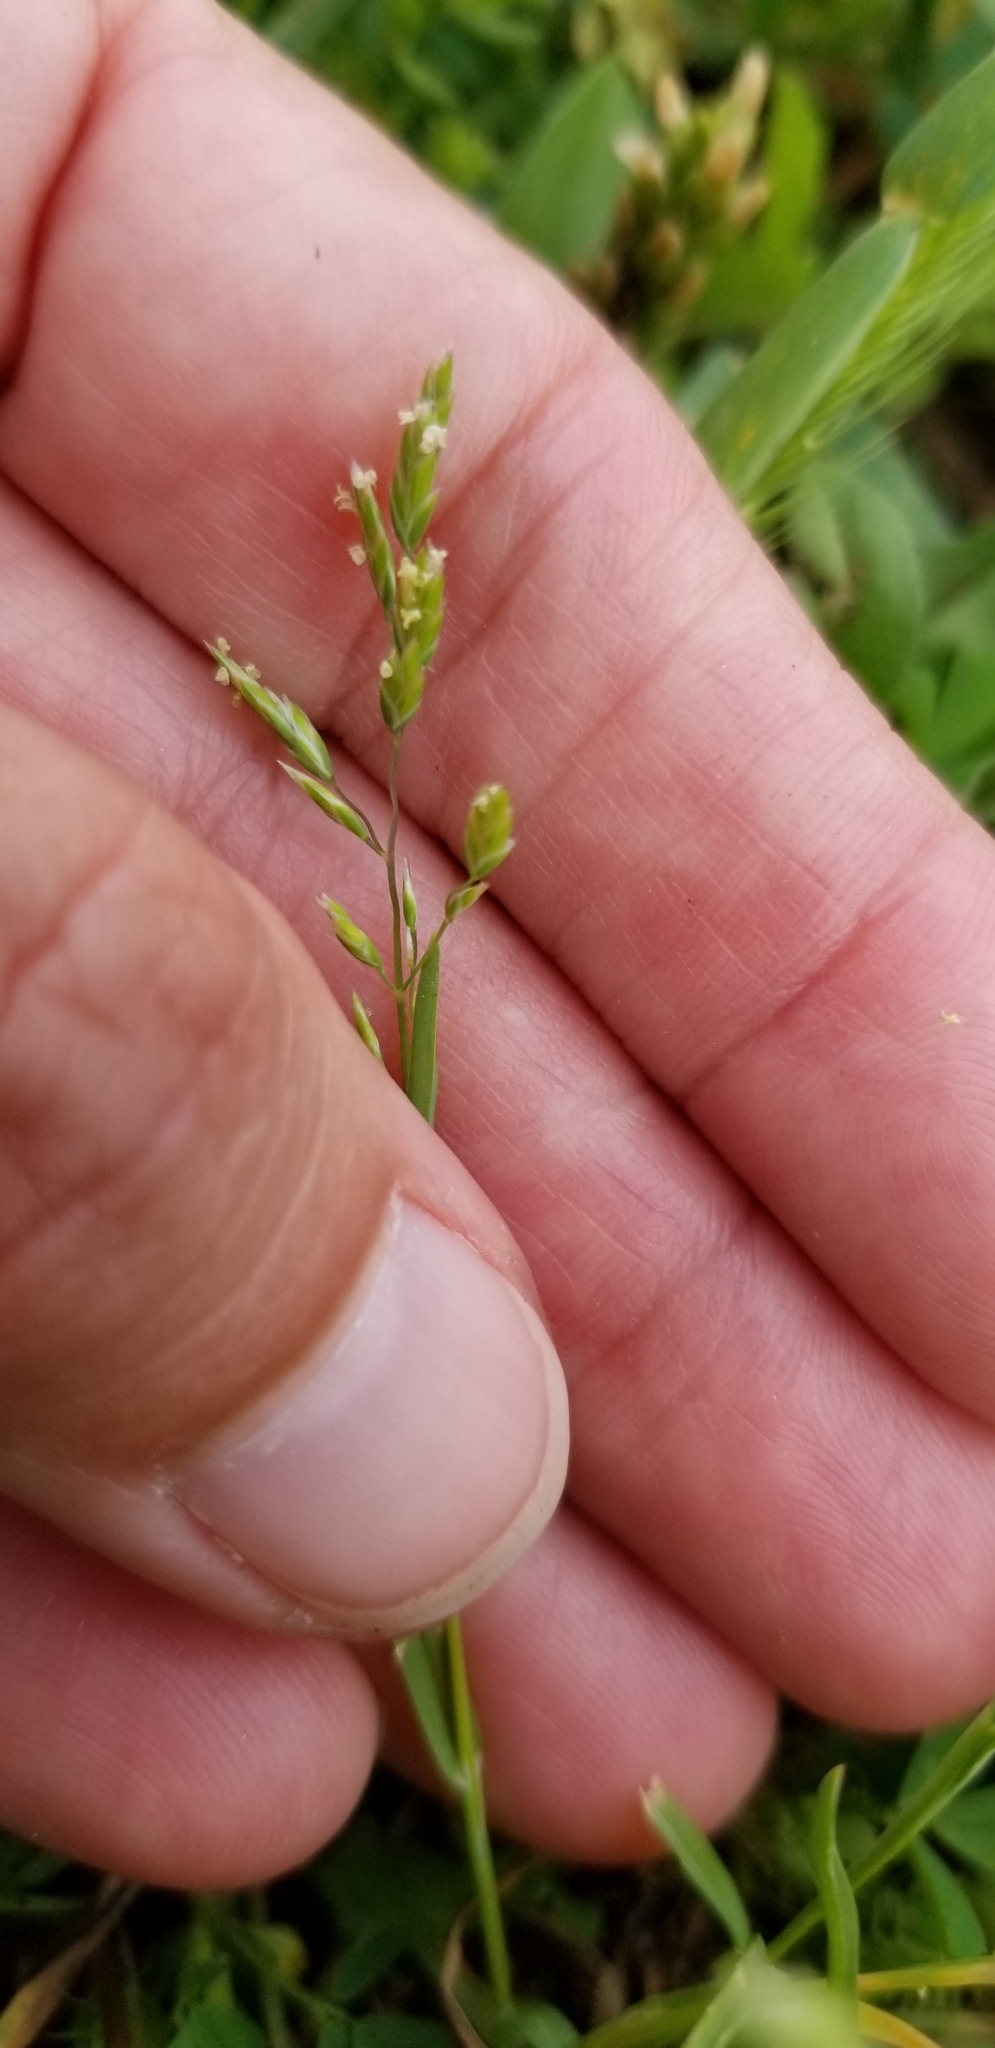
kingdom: Plantae
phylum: Tracheophyta
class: Liliopsida
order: Poales
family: Poaceae
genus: Poa
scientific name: Poa annua
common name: Annual bluegrass
